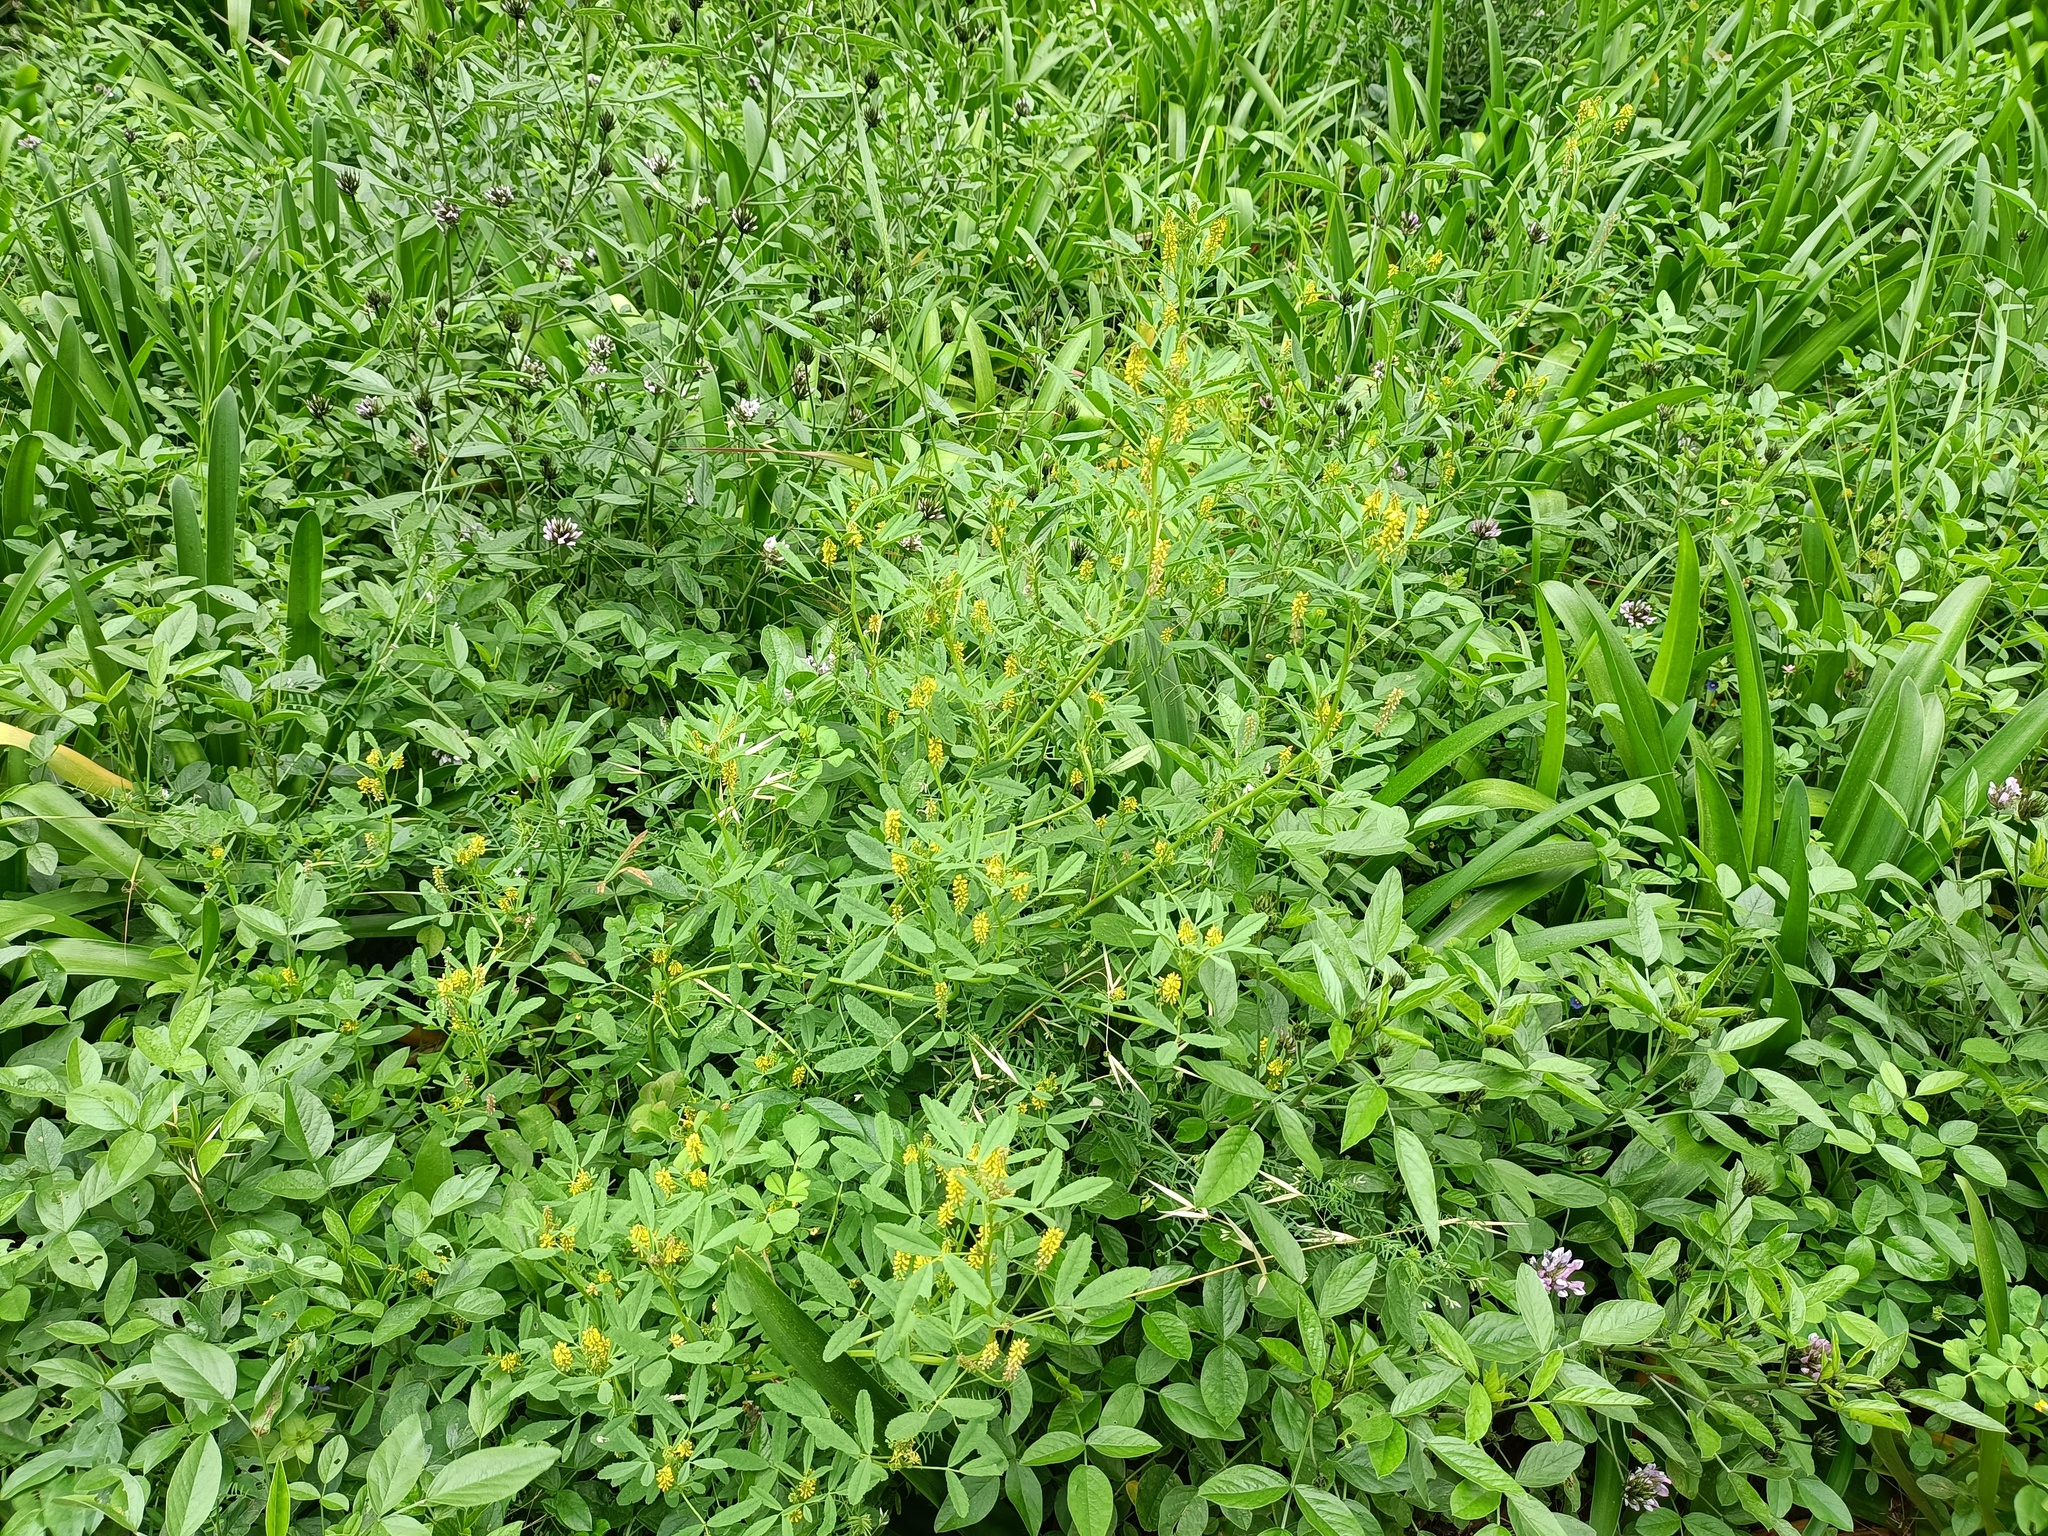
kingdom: Plantae
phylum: Tracheophyta
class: Magnoliopsida
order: Fabales
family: Fabaceae
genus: Melilotus
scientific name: Melilotus indicus
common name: Small melilot
